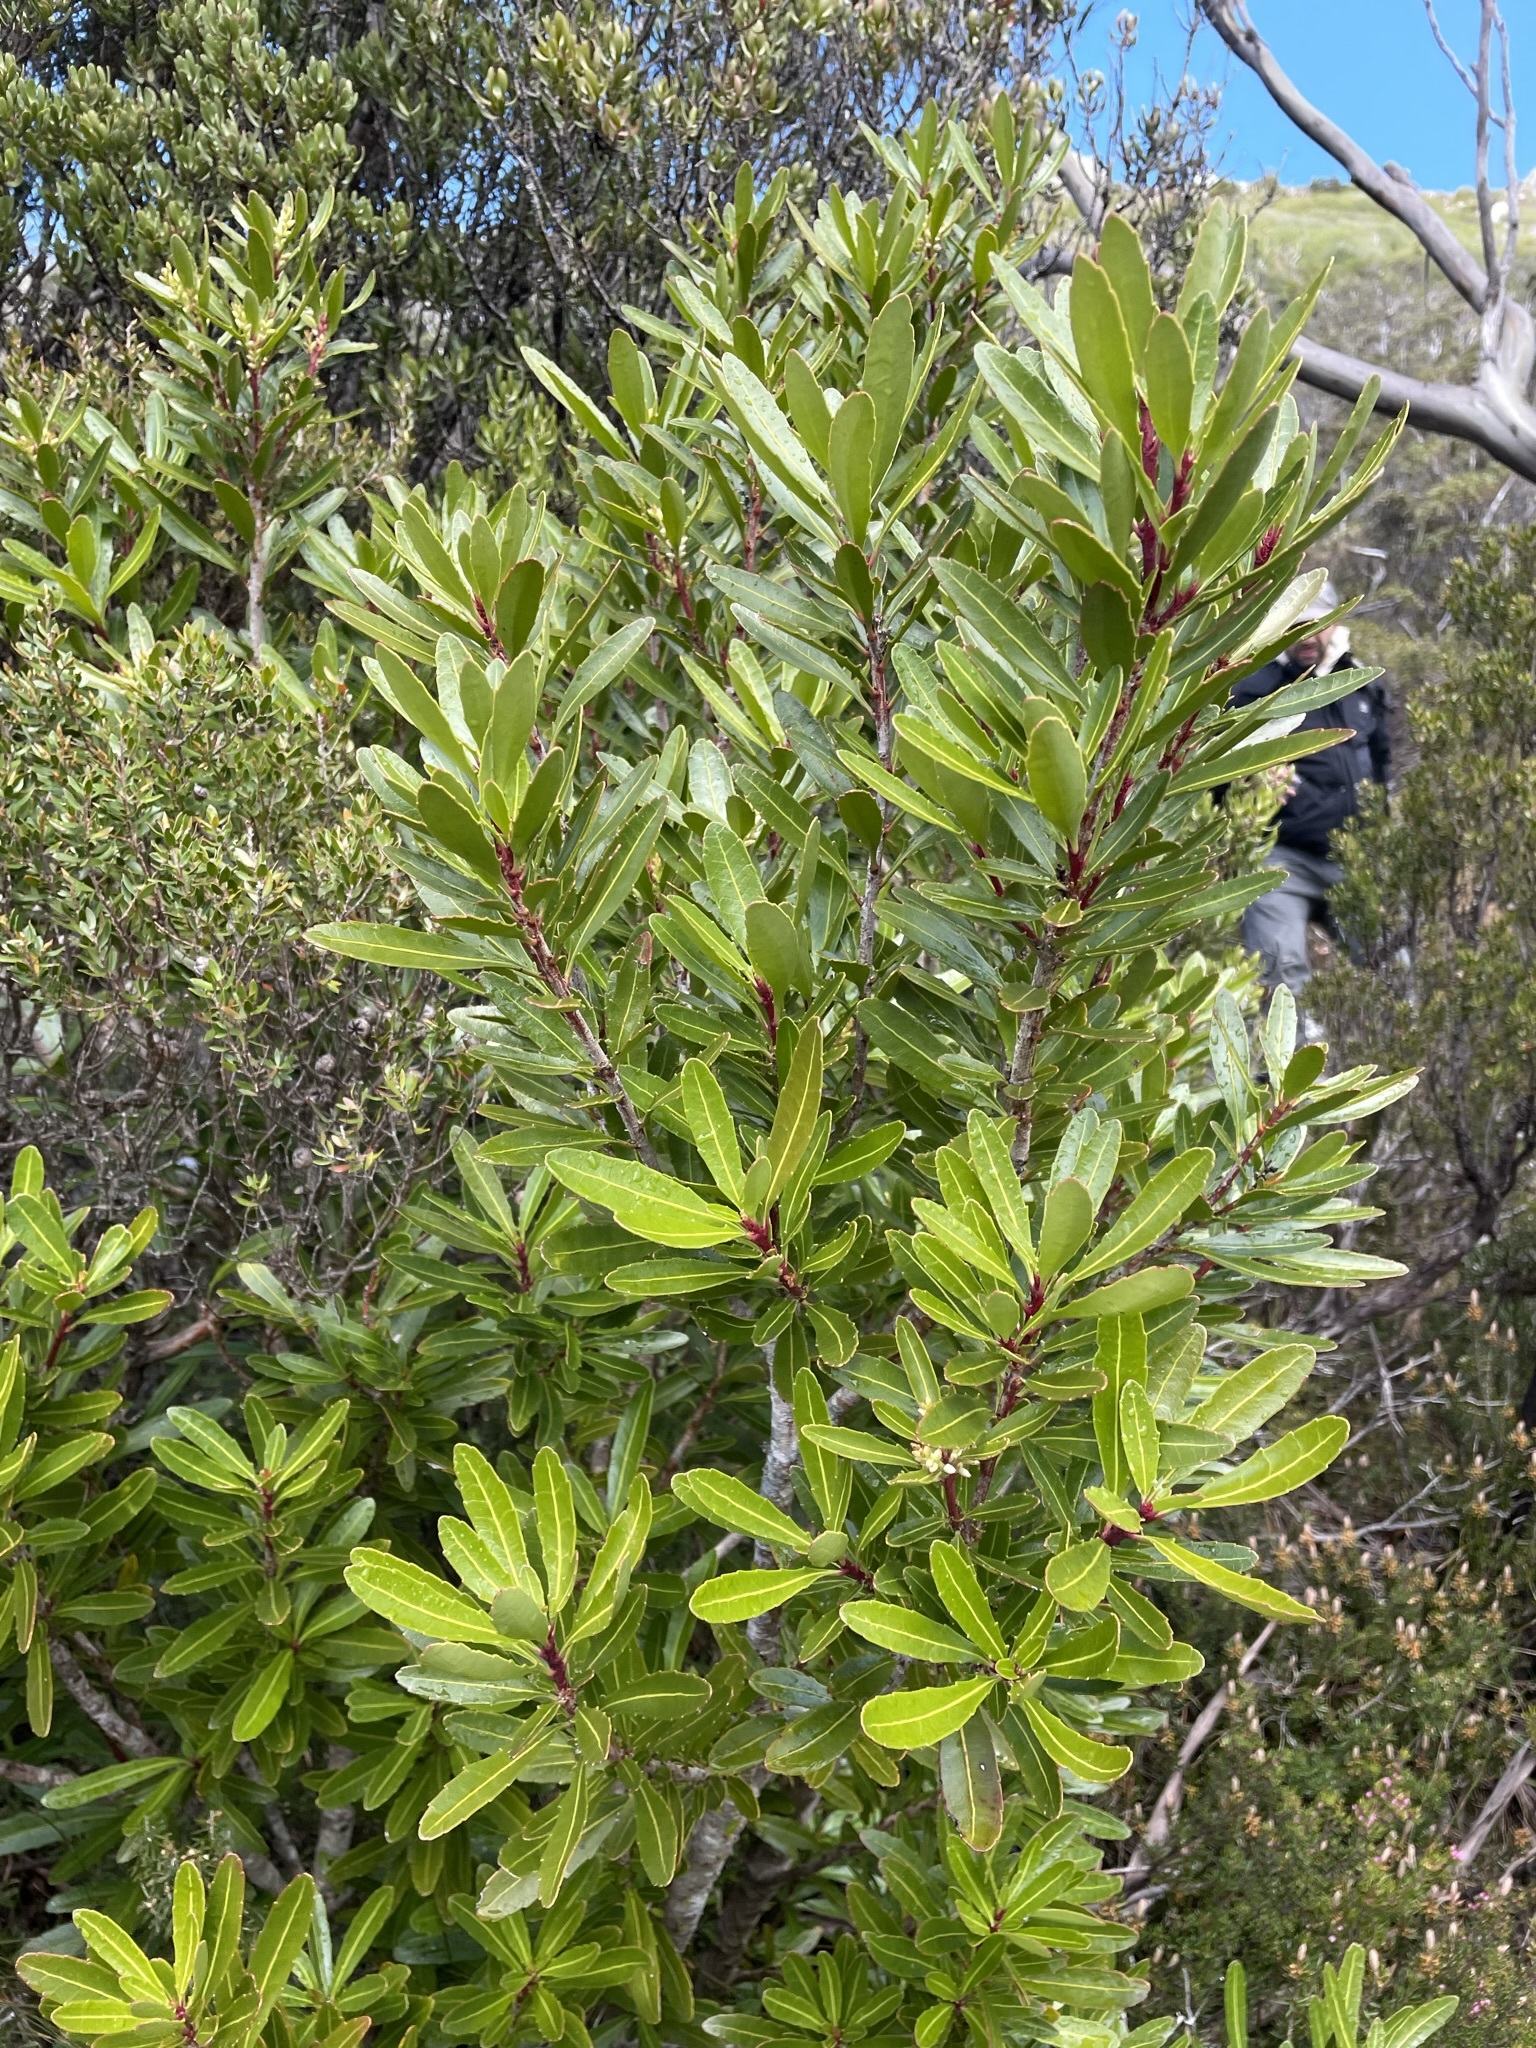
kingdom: Plantae
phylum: Tracheophyta
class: Magnoliopsida
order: Proteales
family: Proteaceae
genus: Cenarrhenes
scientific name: Cenarrhenes nitida
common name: Native plum
